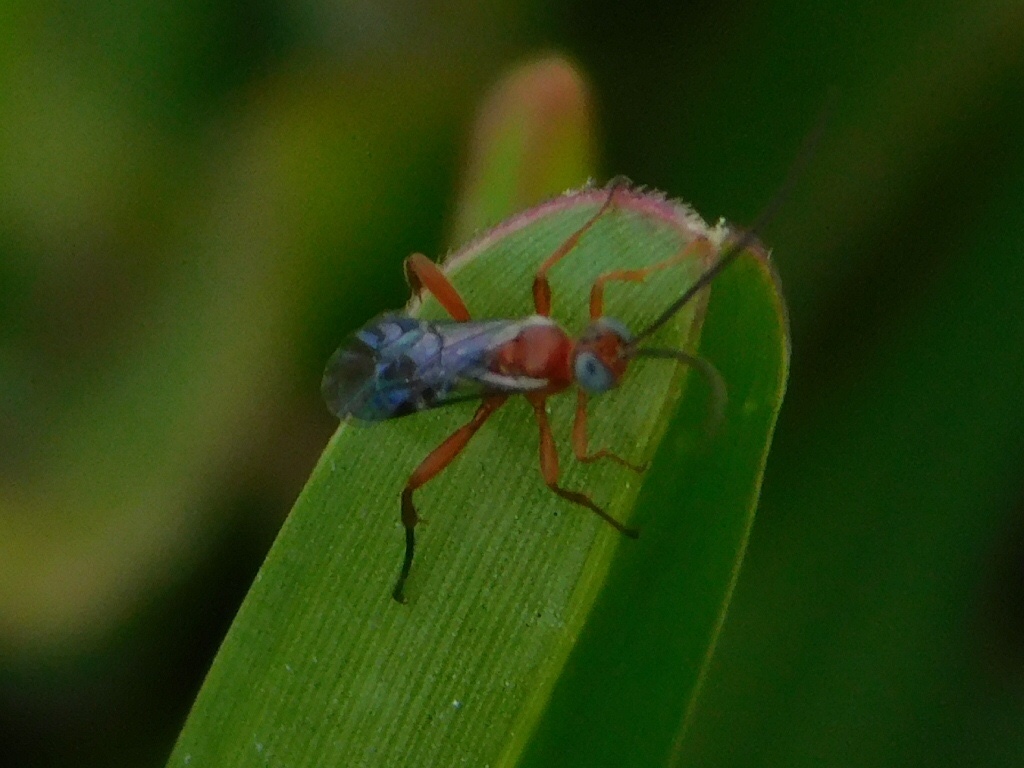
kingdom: Animalia
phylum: Arthropoda
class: Insecta
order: Hymenoptera
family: Ichneumonidae
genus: Pimpla
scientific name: Pimpla marginella
